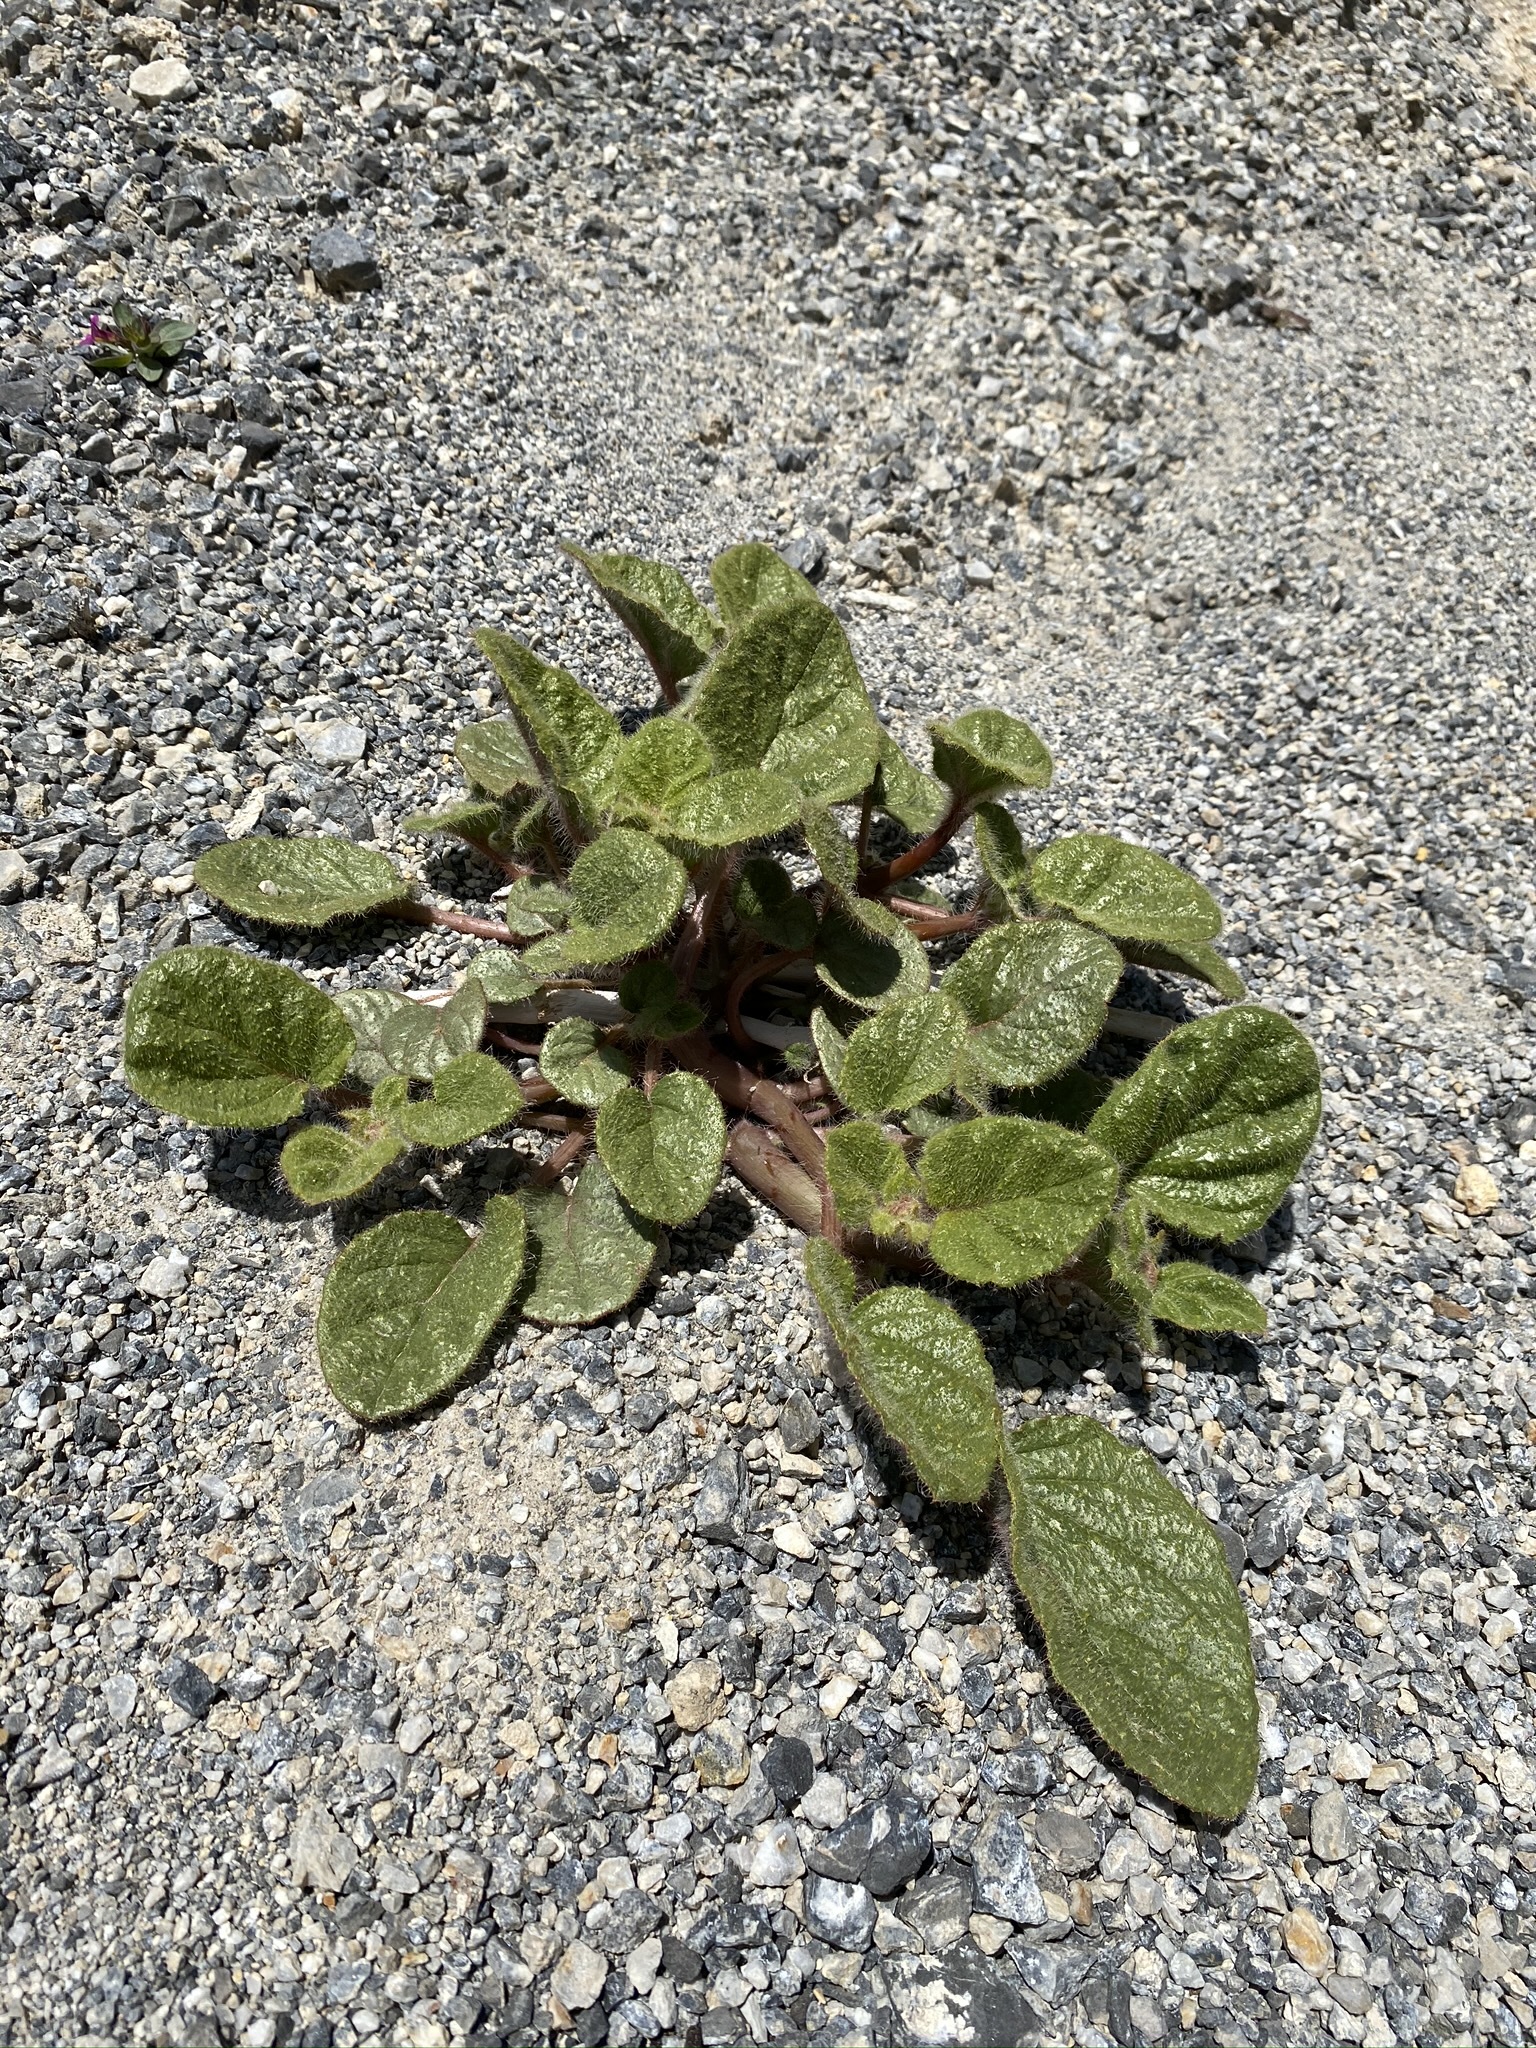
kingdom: Plantae
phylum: Tracheophyta
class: Magnoliopsida
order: Caryophyllales
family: Nyctaginaceae
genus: Anulocaulis
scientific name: Anulocaulis annulatus
